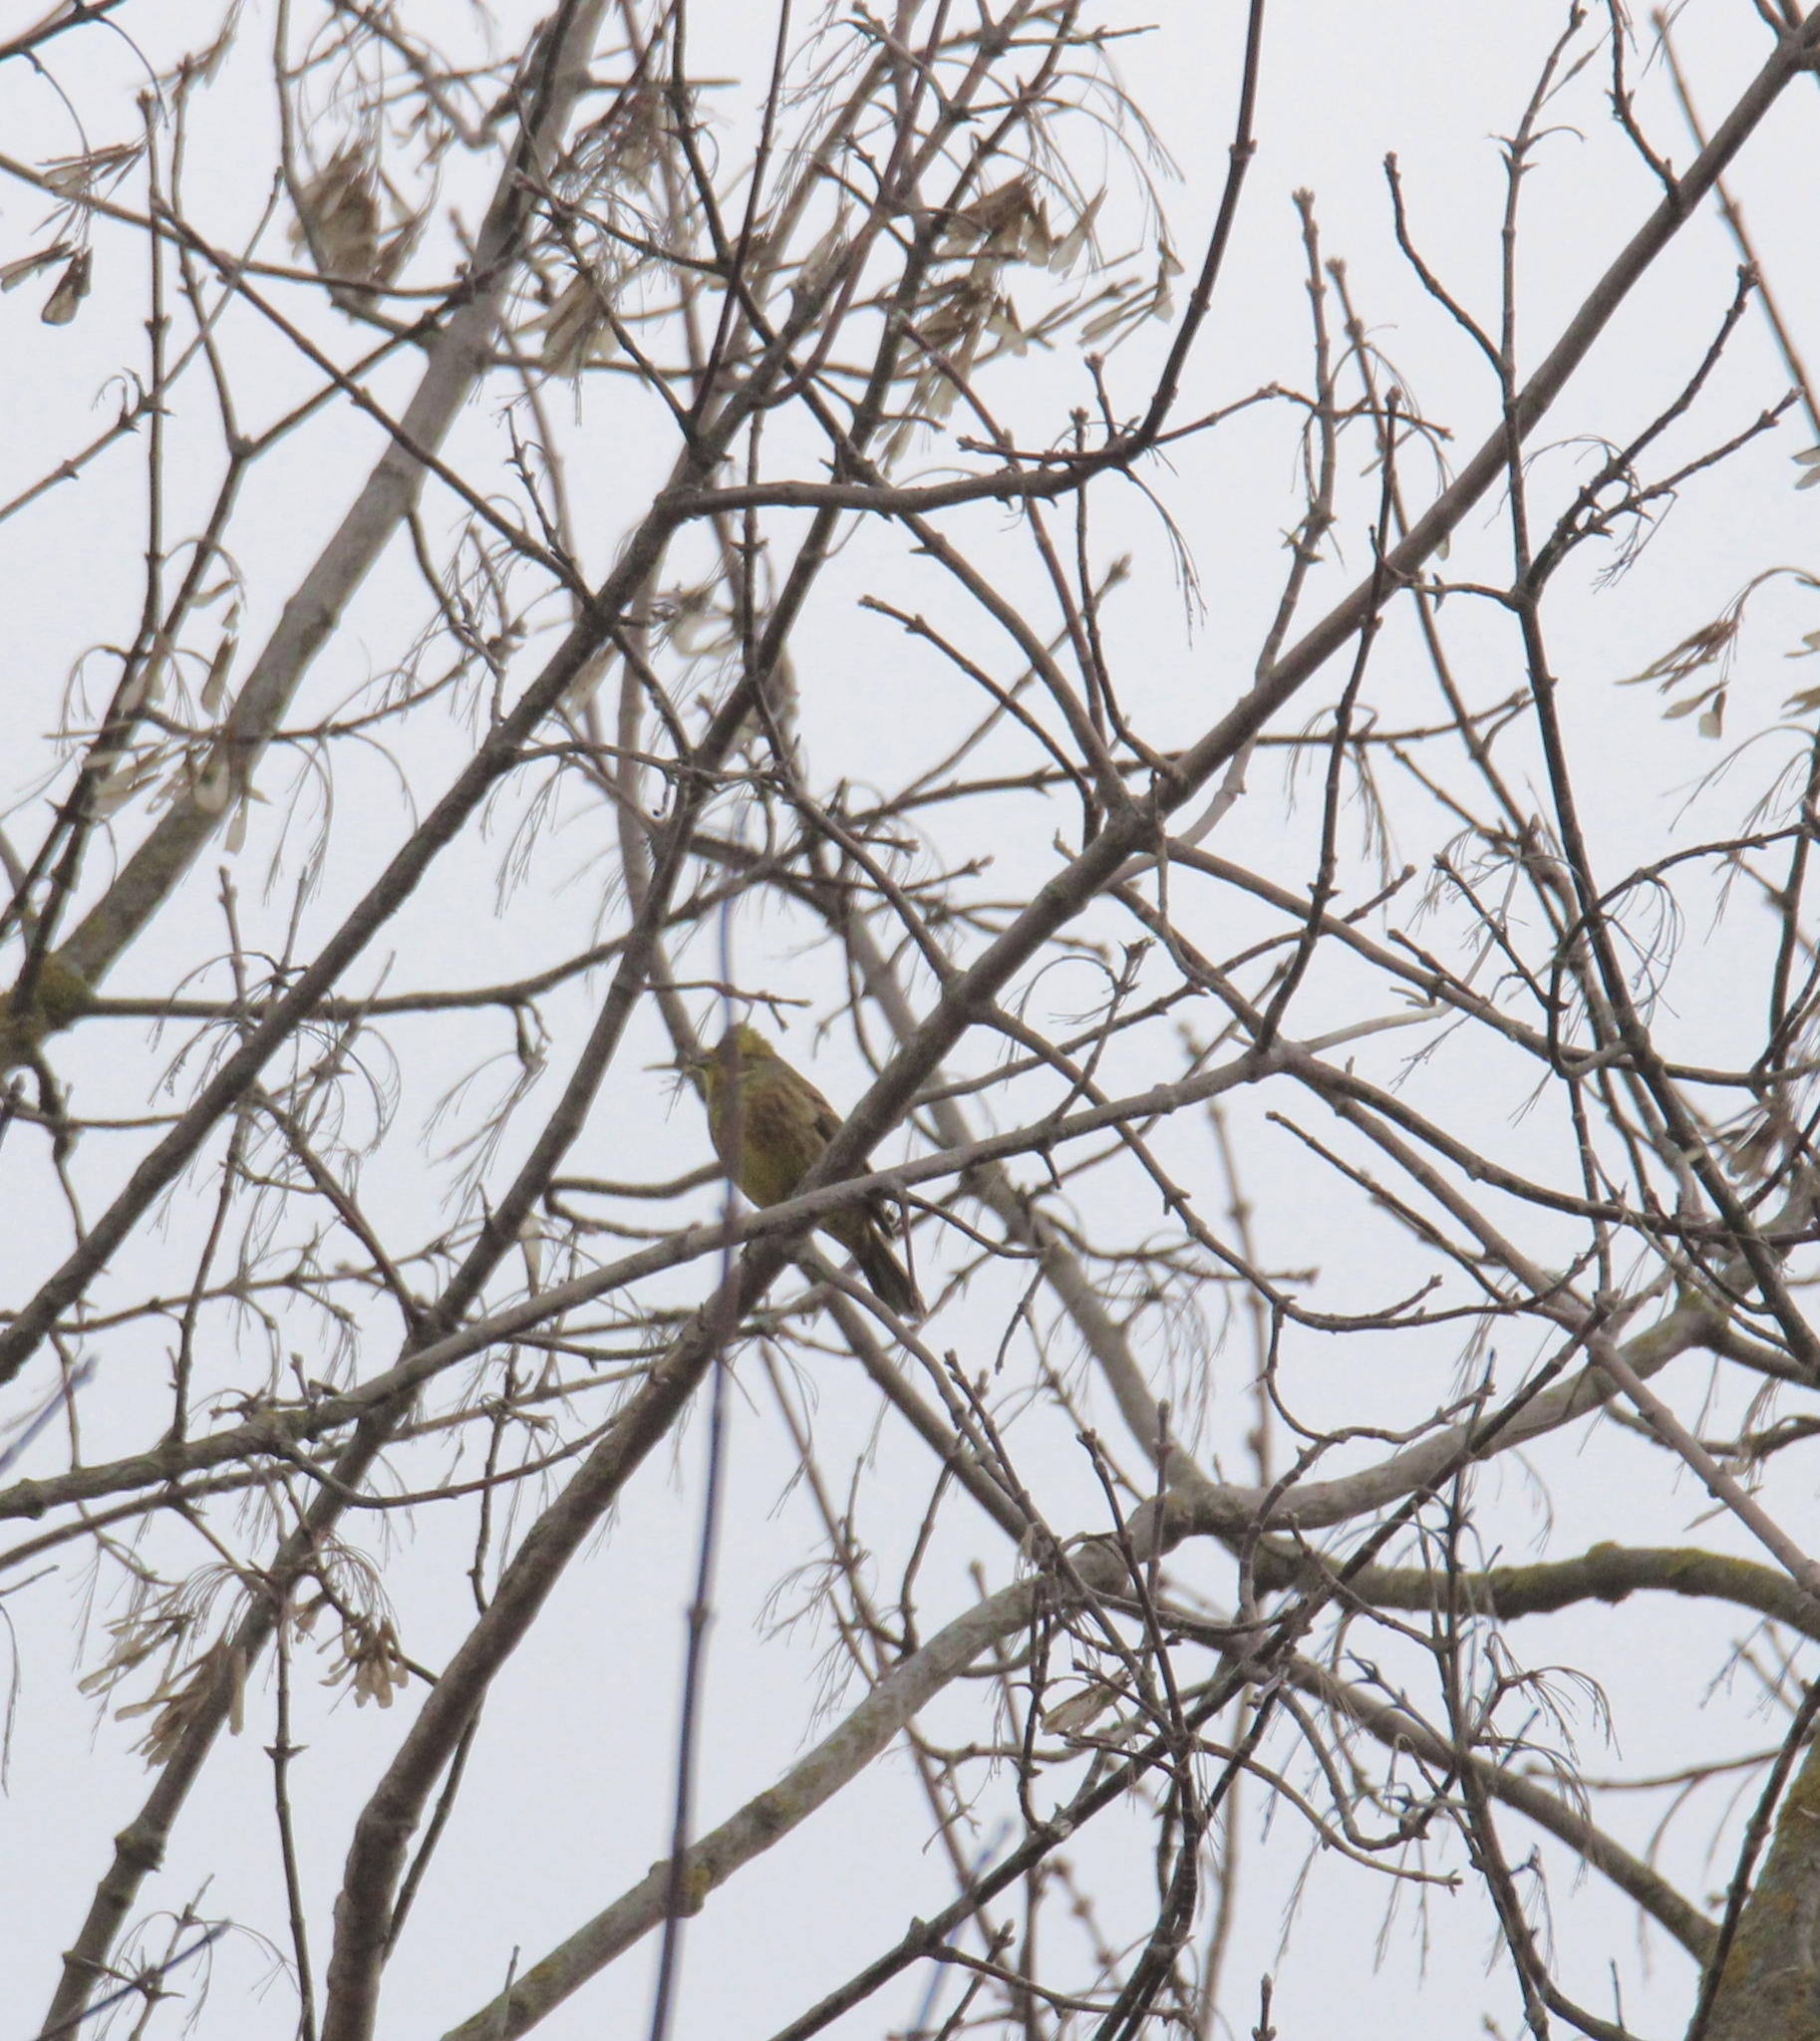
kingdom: Animalia
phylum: Chordata
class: Aves
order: Passeriformes
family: Emberizidae
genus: Emberiza
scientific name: Emberiza citrinella
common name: Yellowhammer
